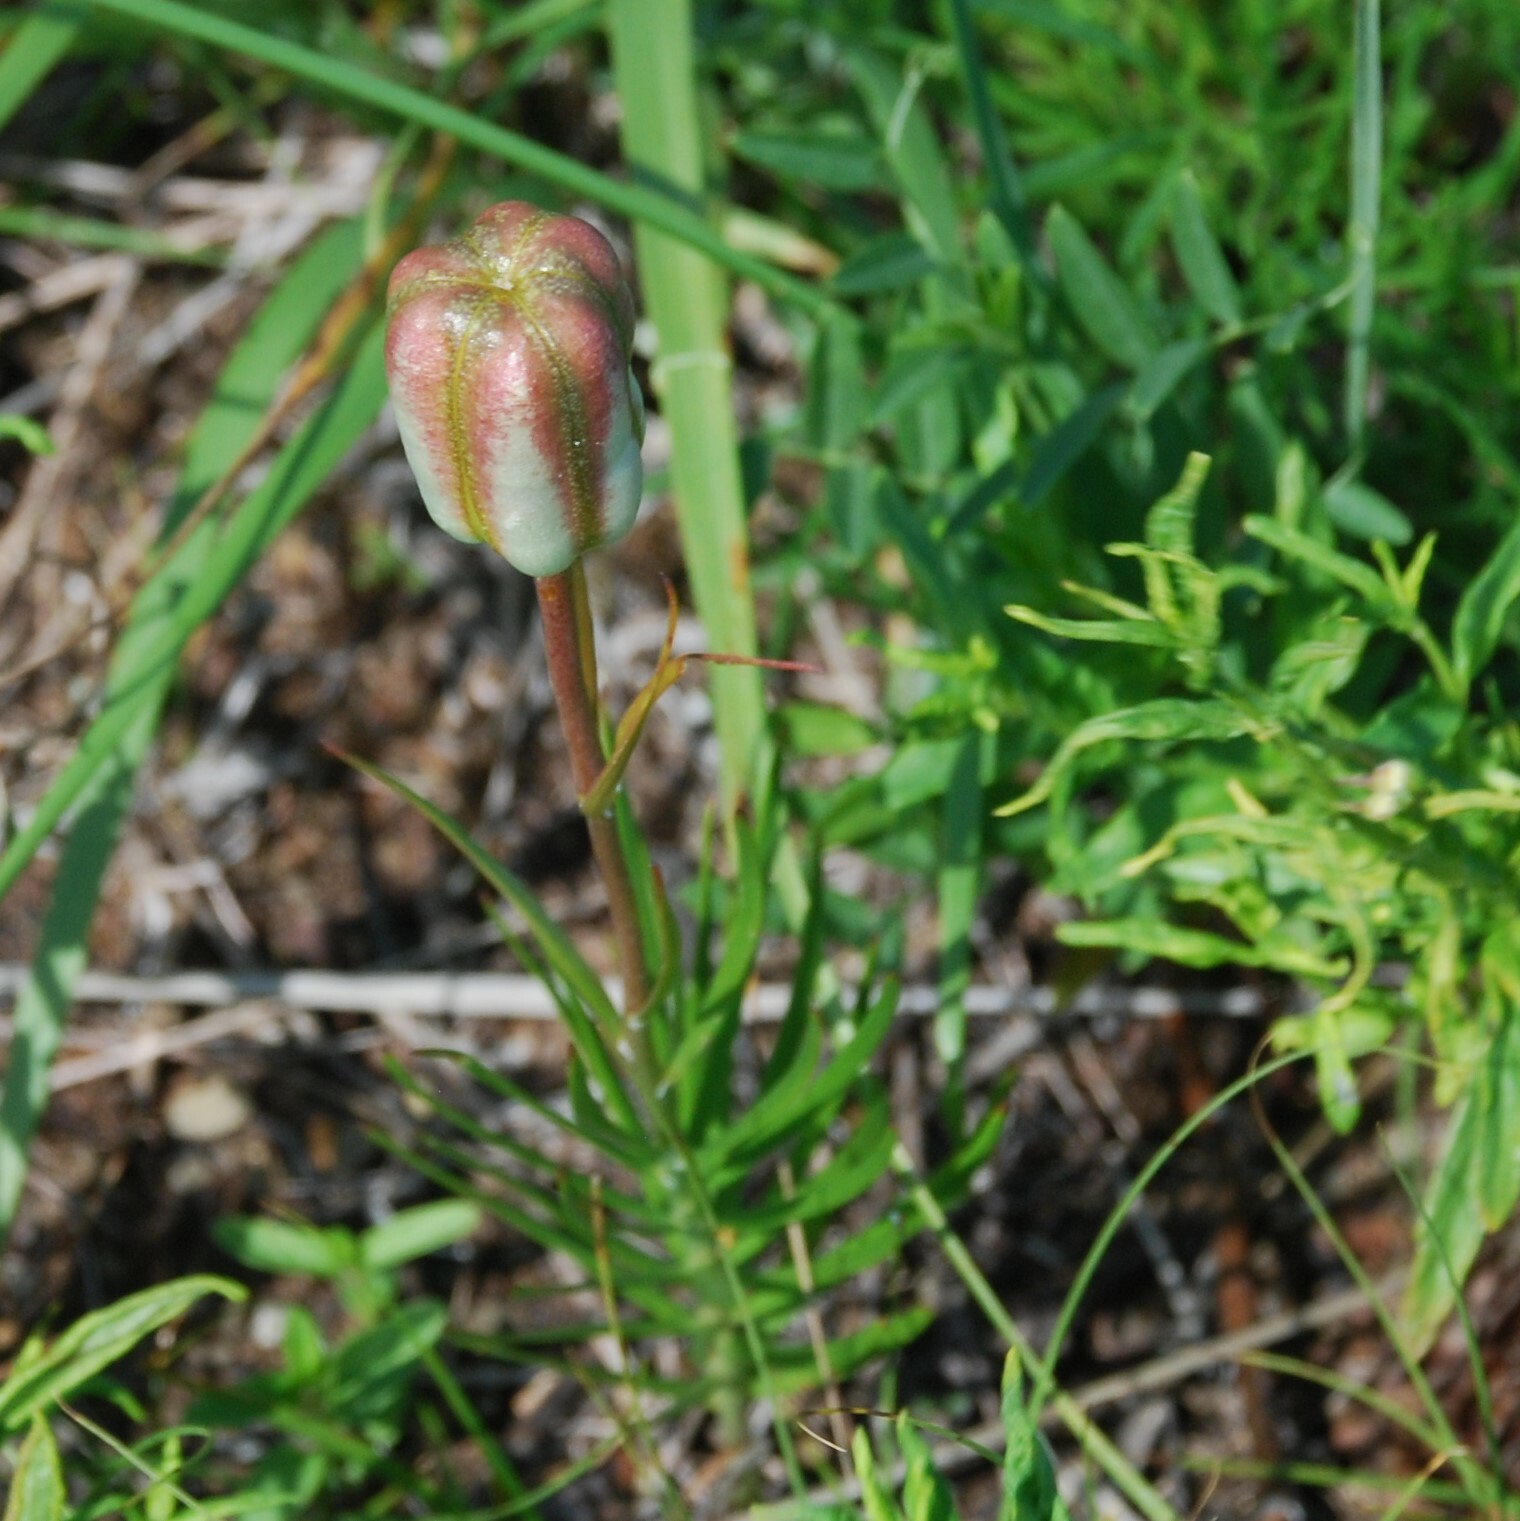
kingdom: Plantae
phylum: Tracheophyta
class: Liliopsida
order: Liliales
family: Liliaceae
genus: Lilium
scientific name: Lilium pumilum
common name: Coral lily
